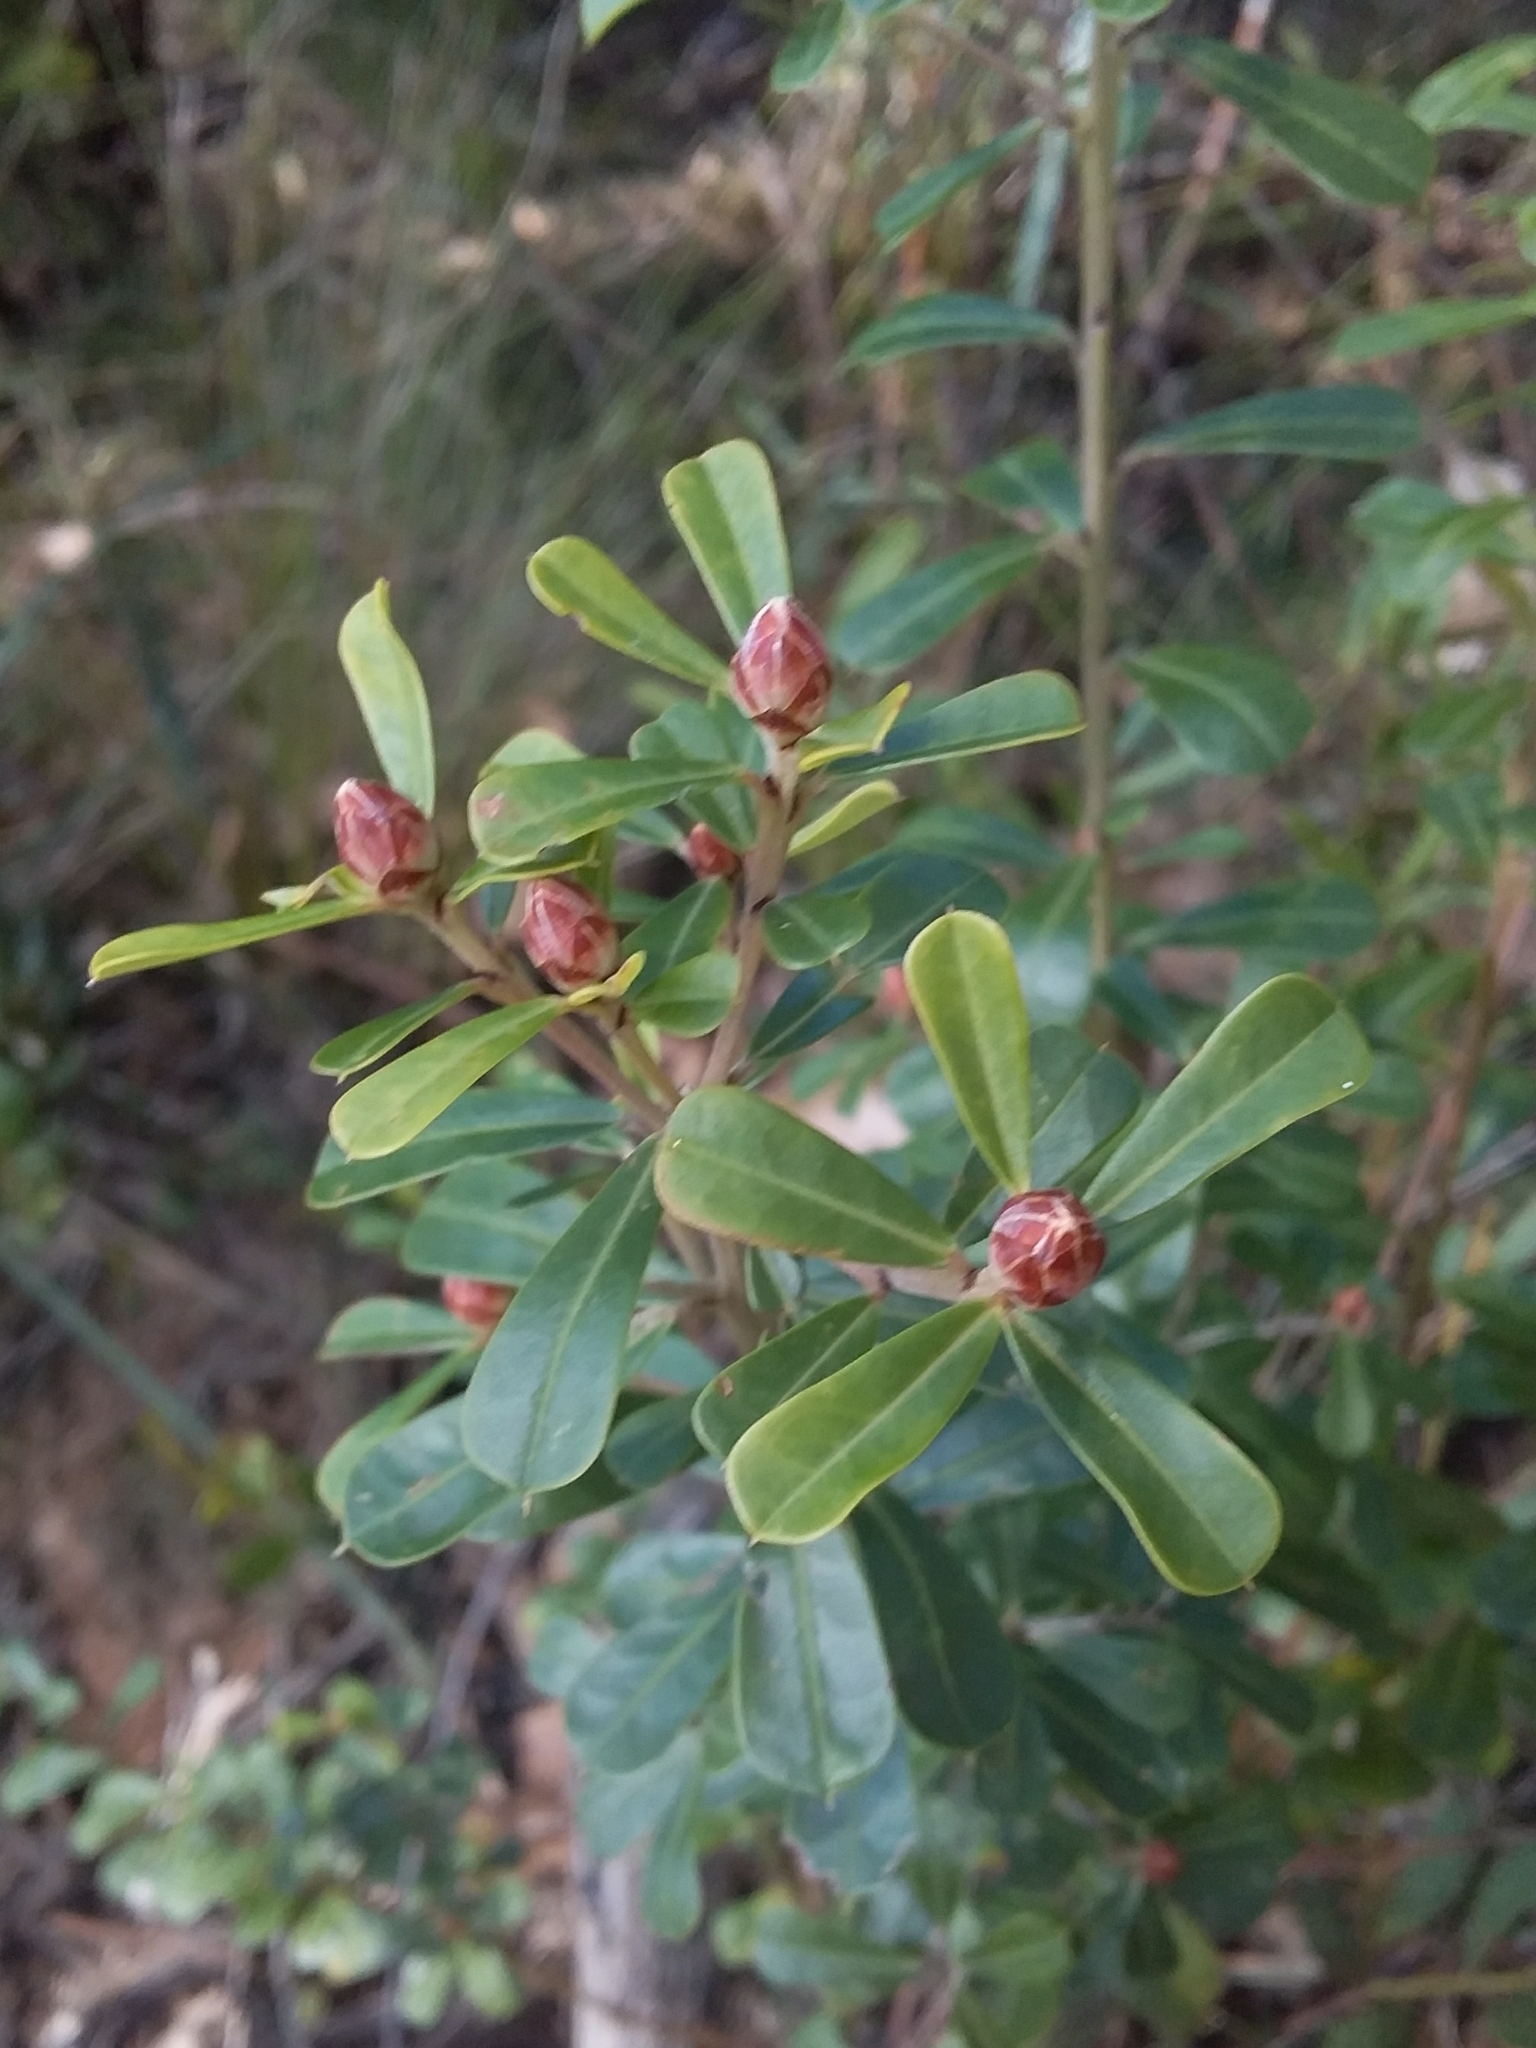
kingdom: Plantae
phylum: Tracheophyta
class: Magnoliopsida
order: Fabales
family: Fabaceae
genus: Pultenaea
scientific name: Pultenaea daphnoides
